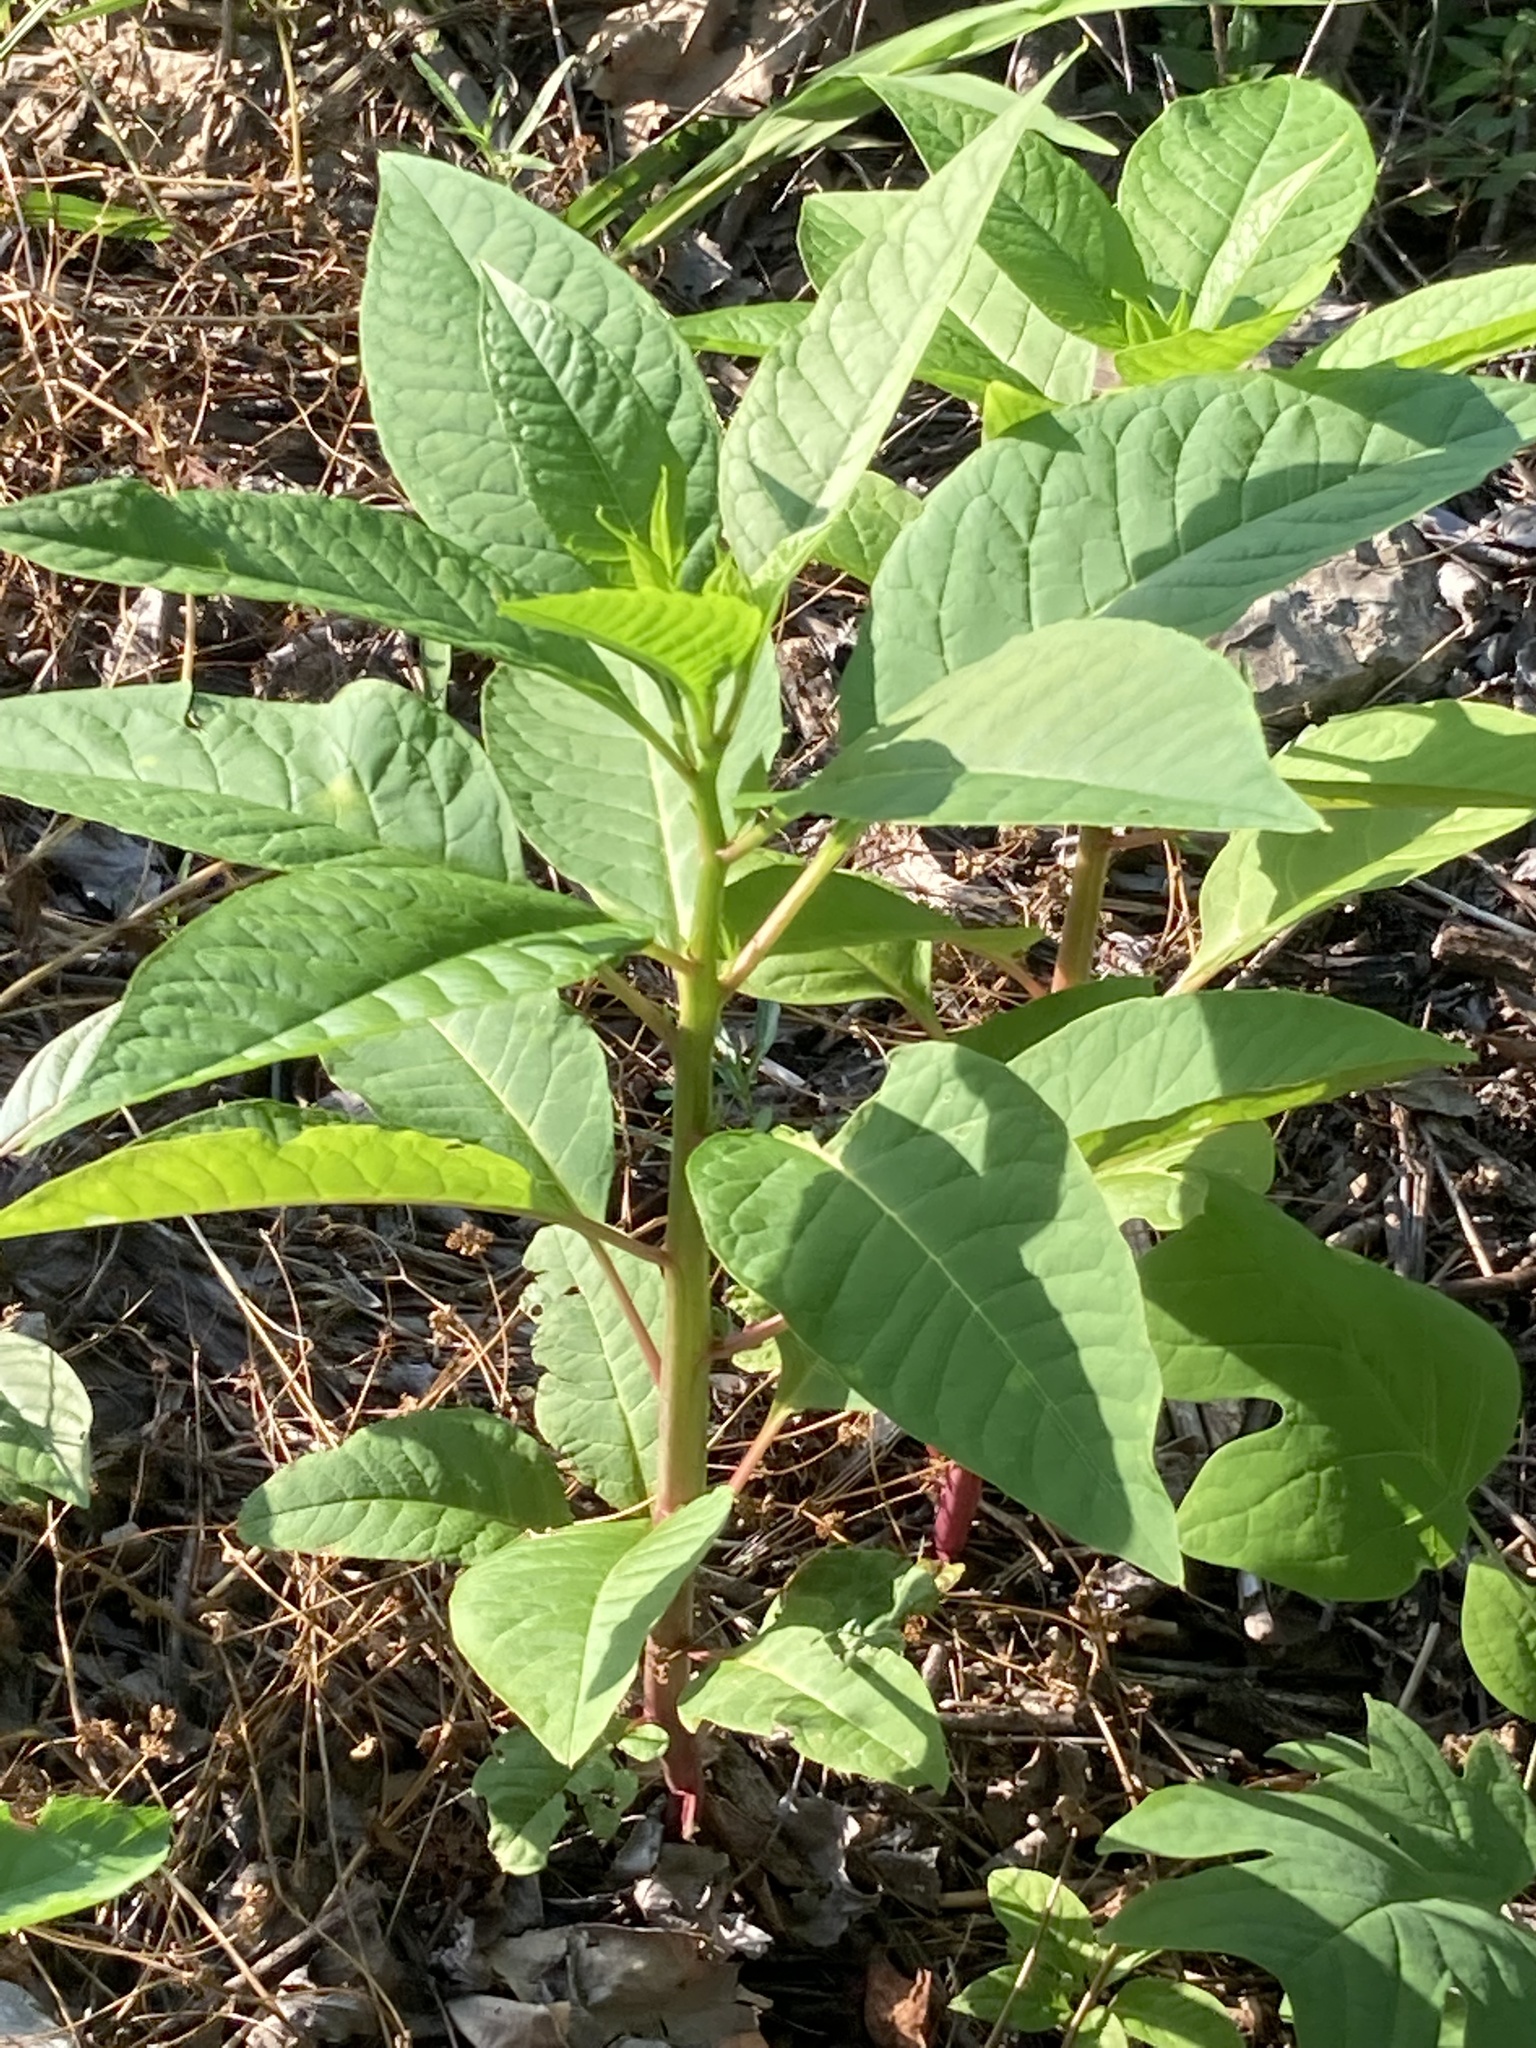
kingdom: Plantae
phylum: Tracheophyta
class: Magnoliopsida
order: Caryophyllales
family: Phytolaccaceae
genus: Phytolacca
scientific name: Phytolacca americana
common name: American pokeweed
